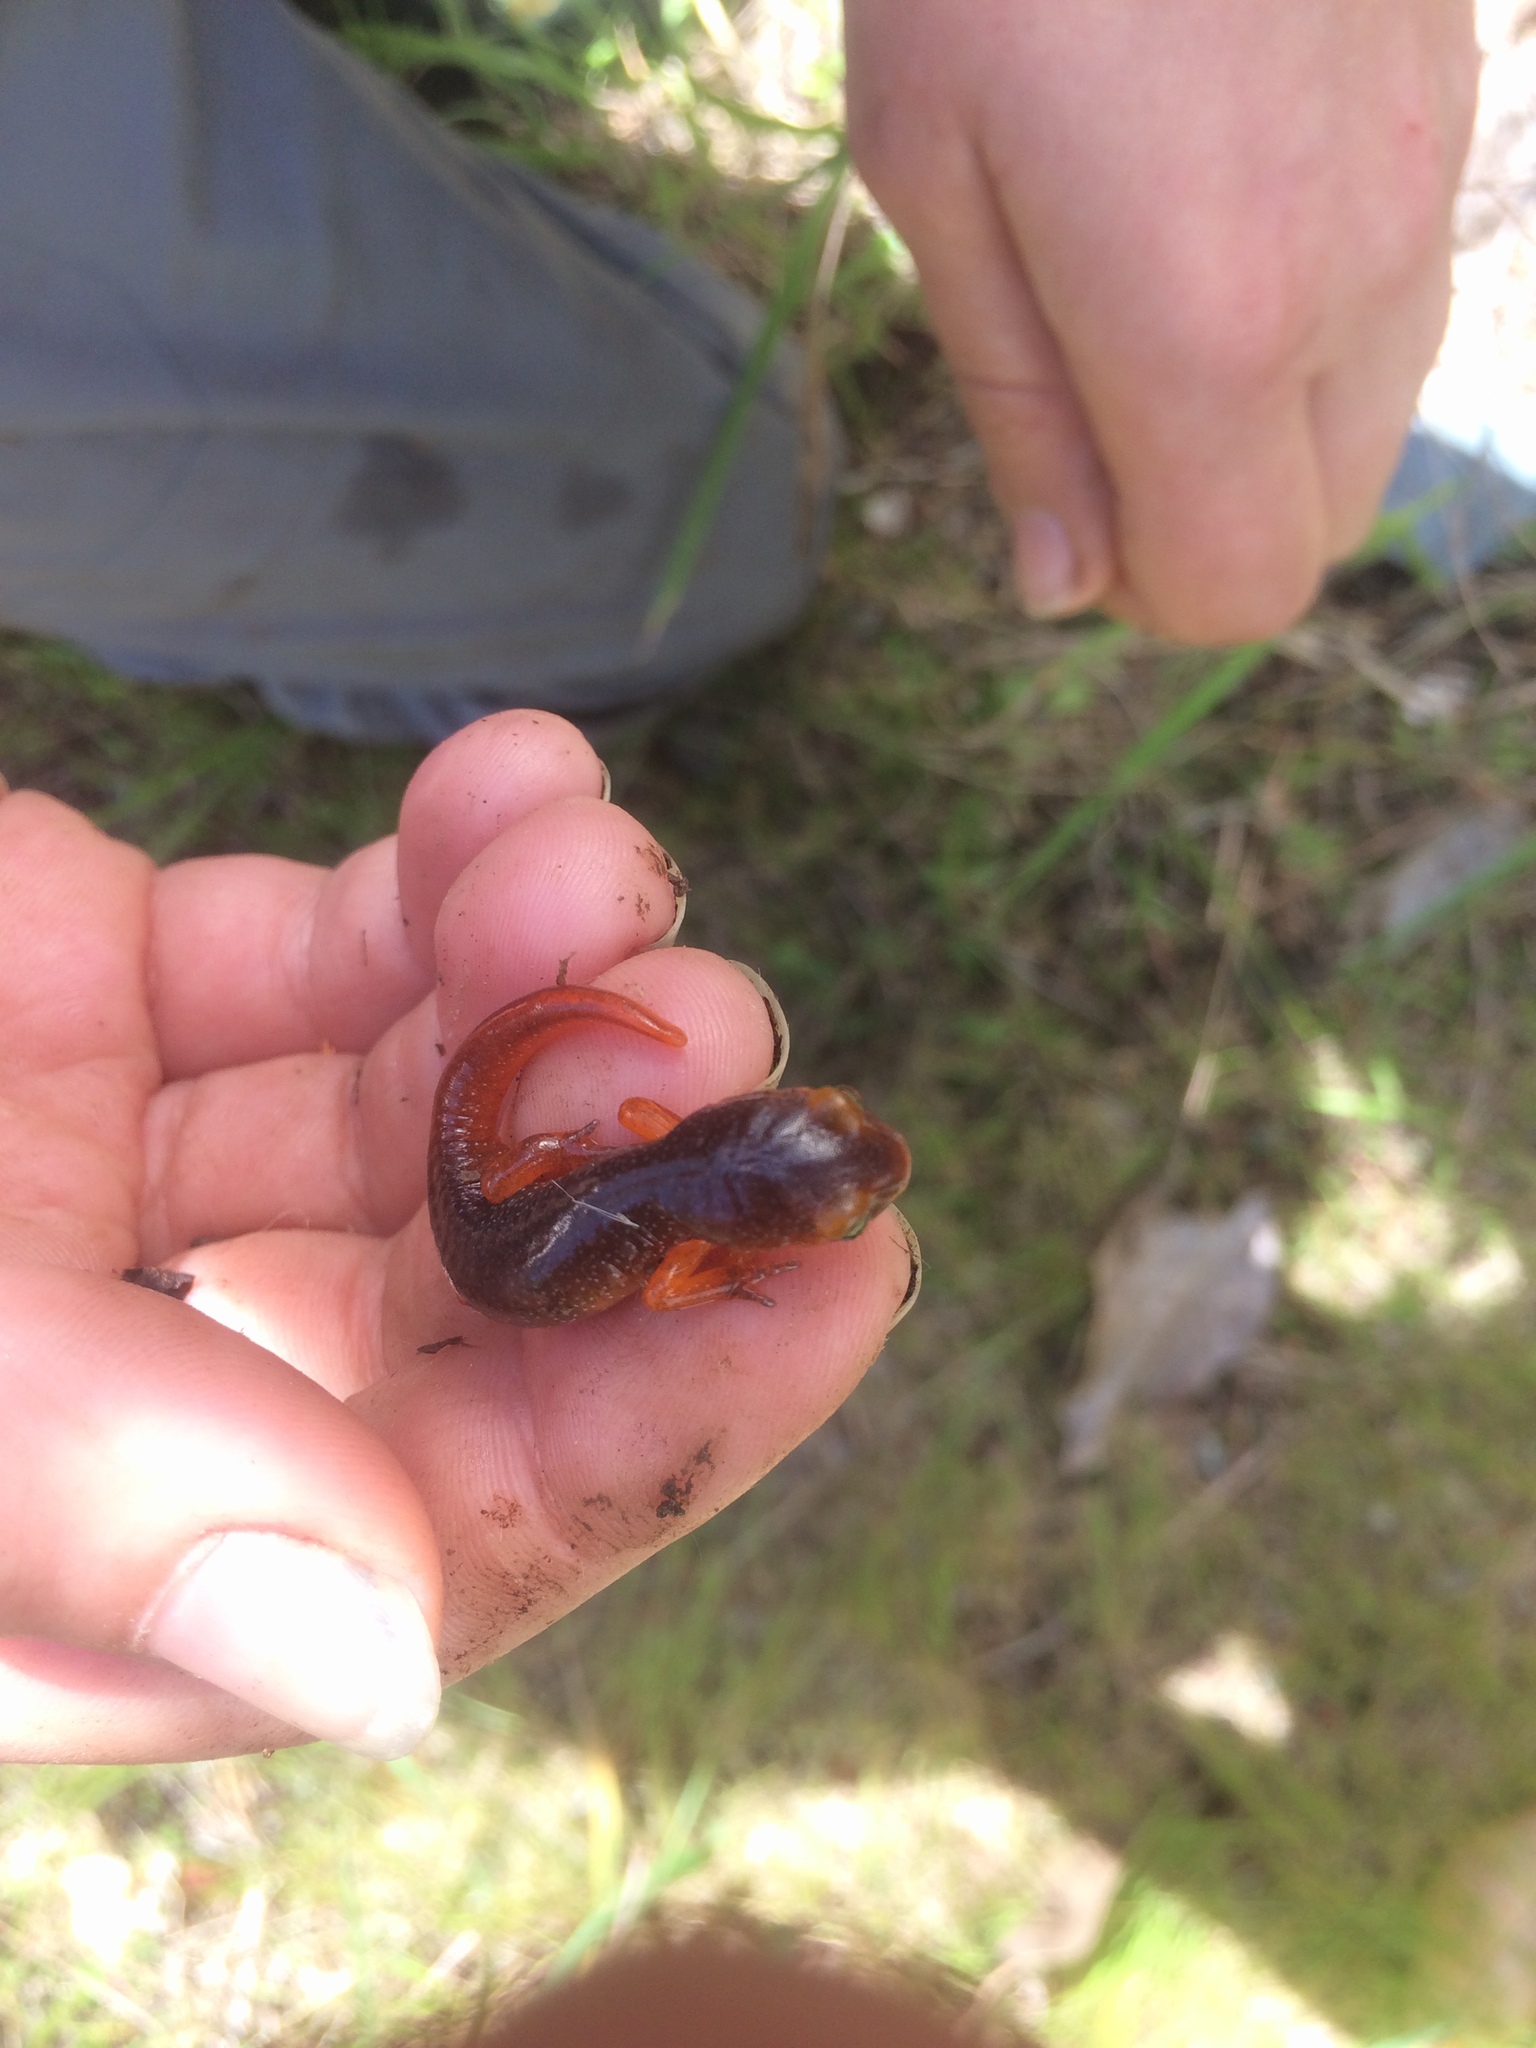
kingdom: Animalia
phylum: Chordata
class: Amphibia
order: Caudata
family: Plethodontidae
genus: Ensatina
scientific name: Ensatina eschscholtzii
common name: Ensatina
